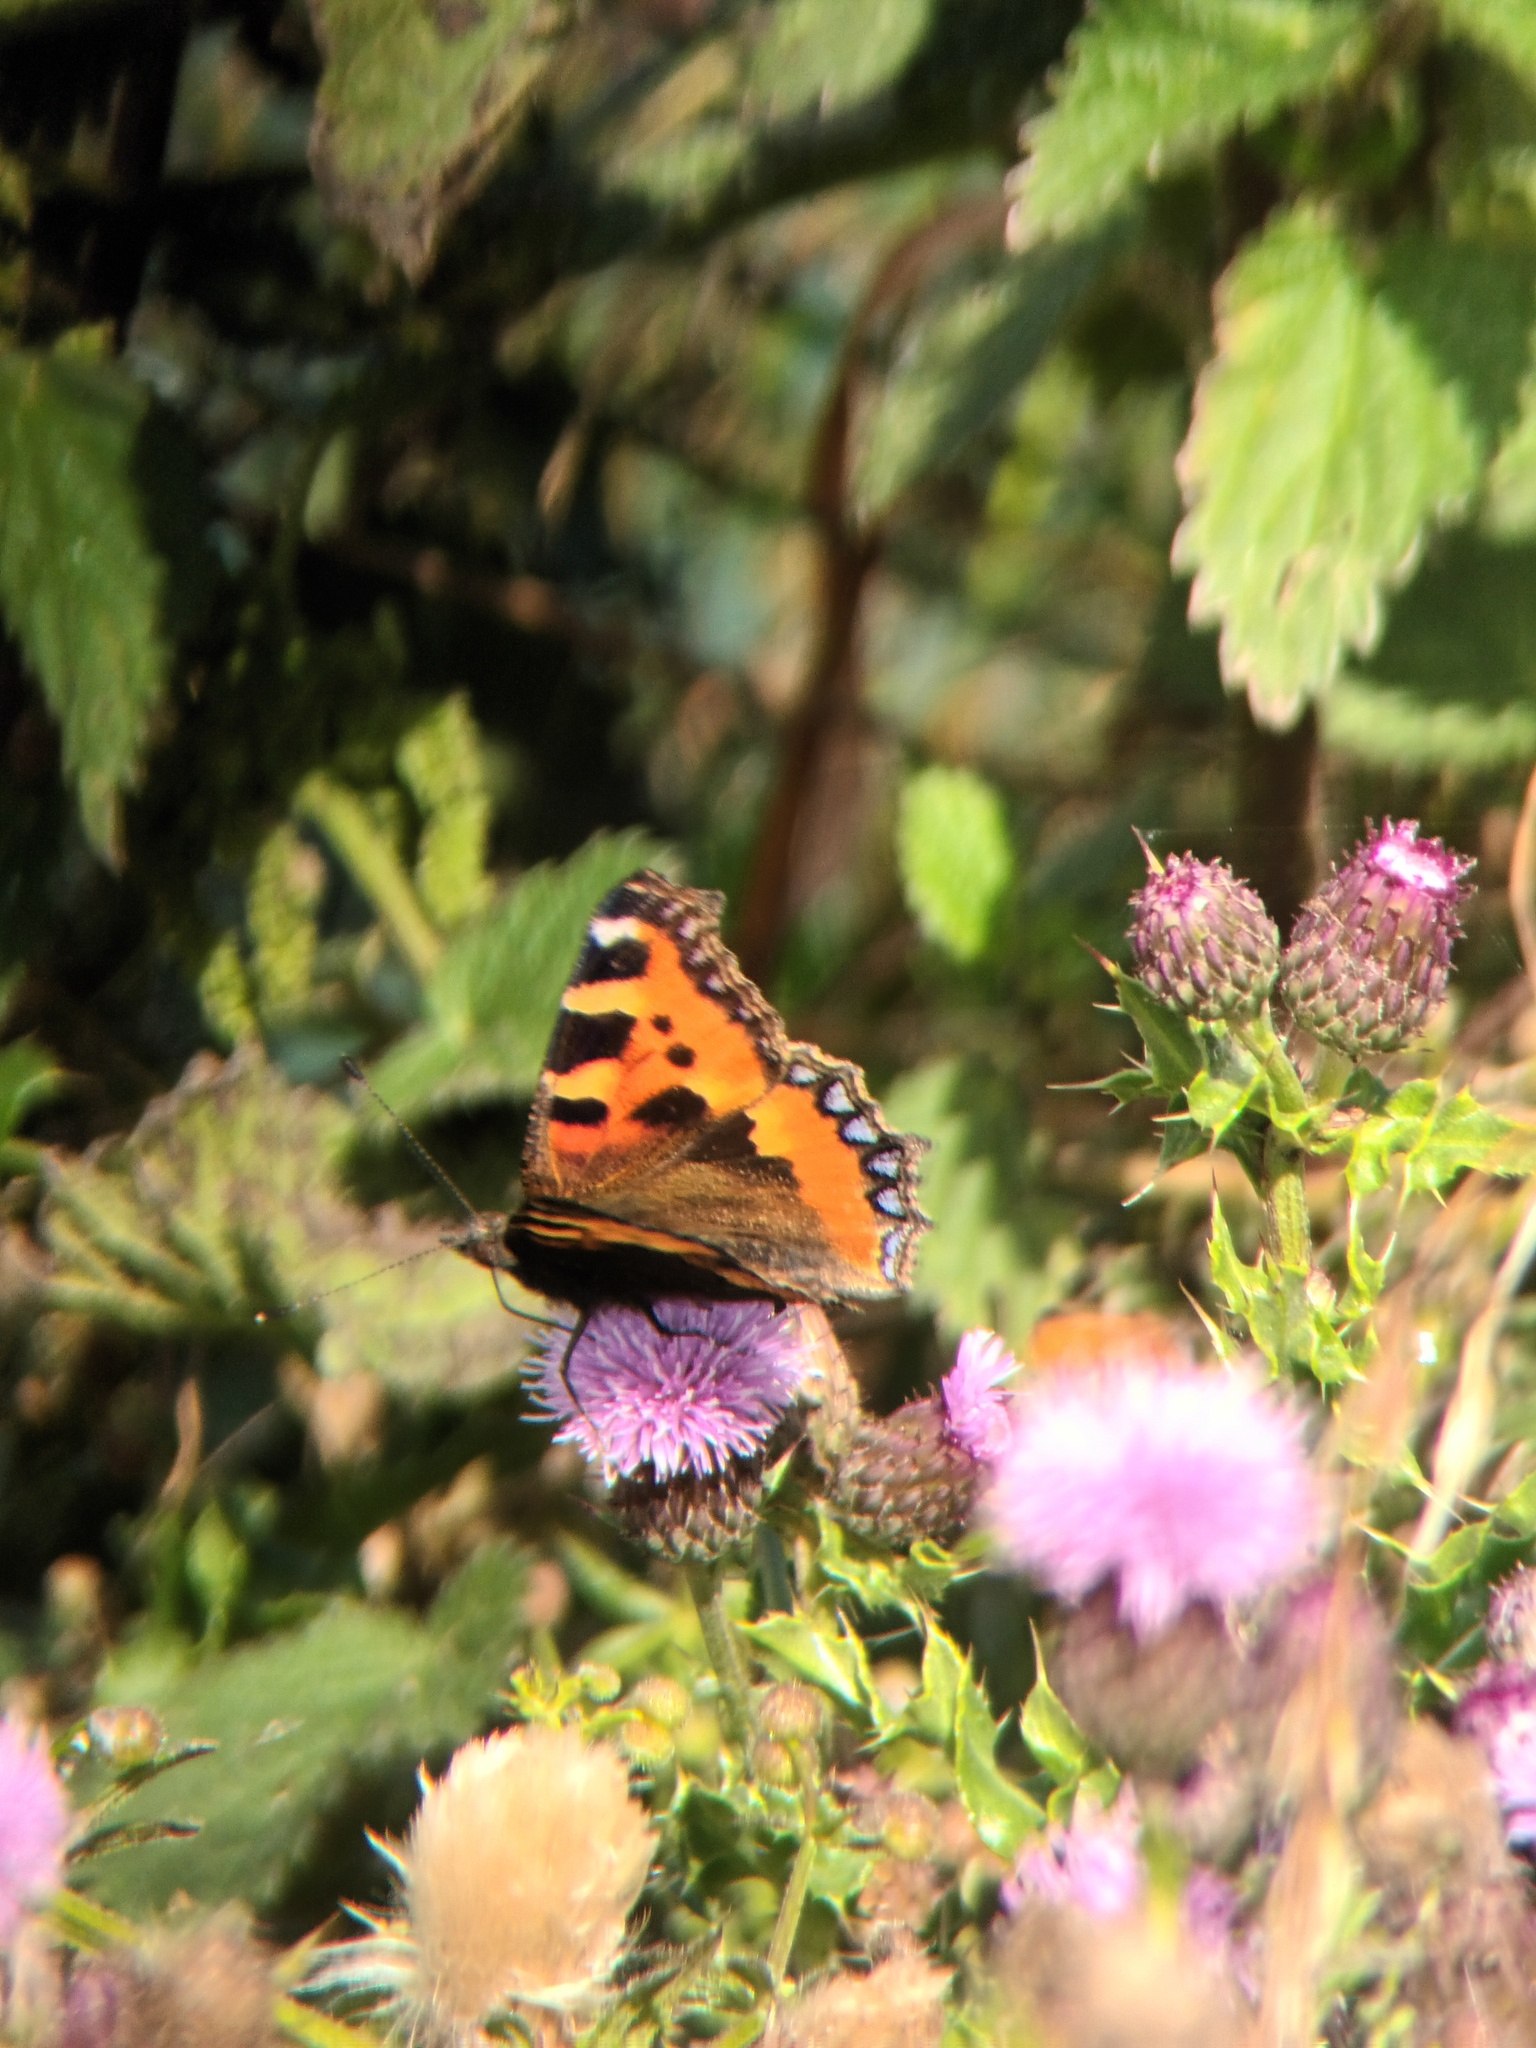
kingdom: Animalia
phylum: Arthropoda
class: Insecta
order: Lepidoptera
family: Nymphalidae
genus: Aglais
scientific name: Aglais urticae
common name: Small tortoiseshell
